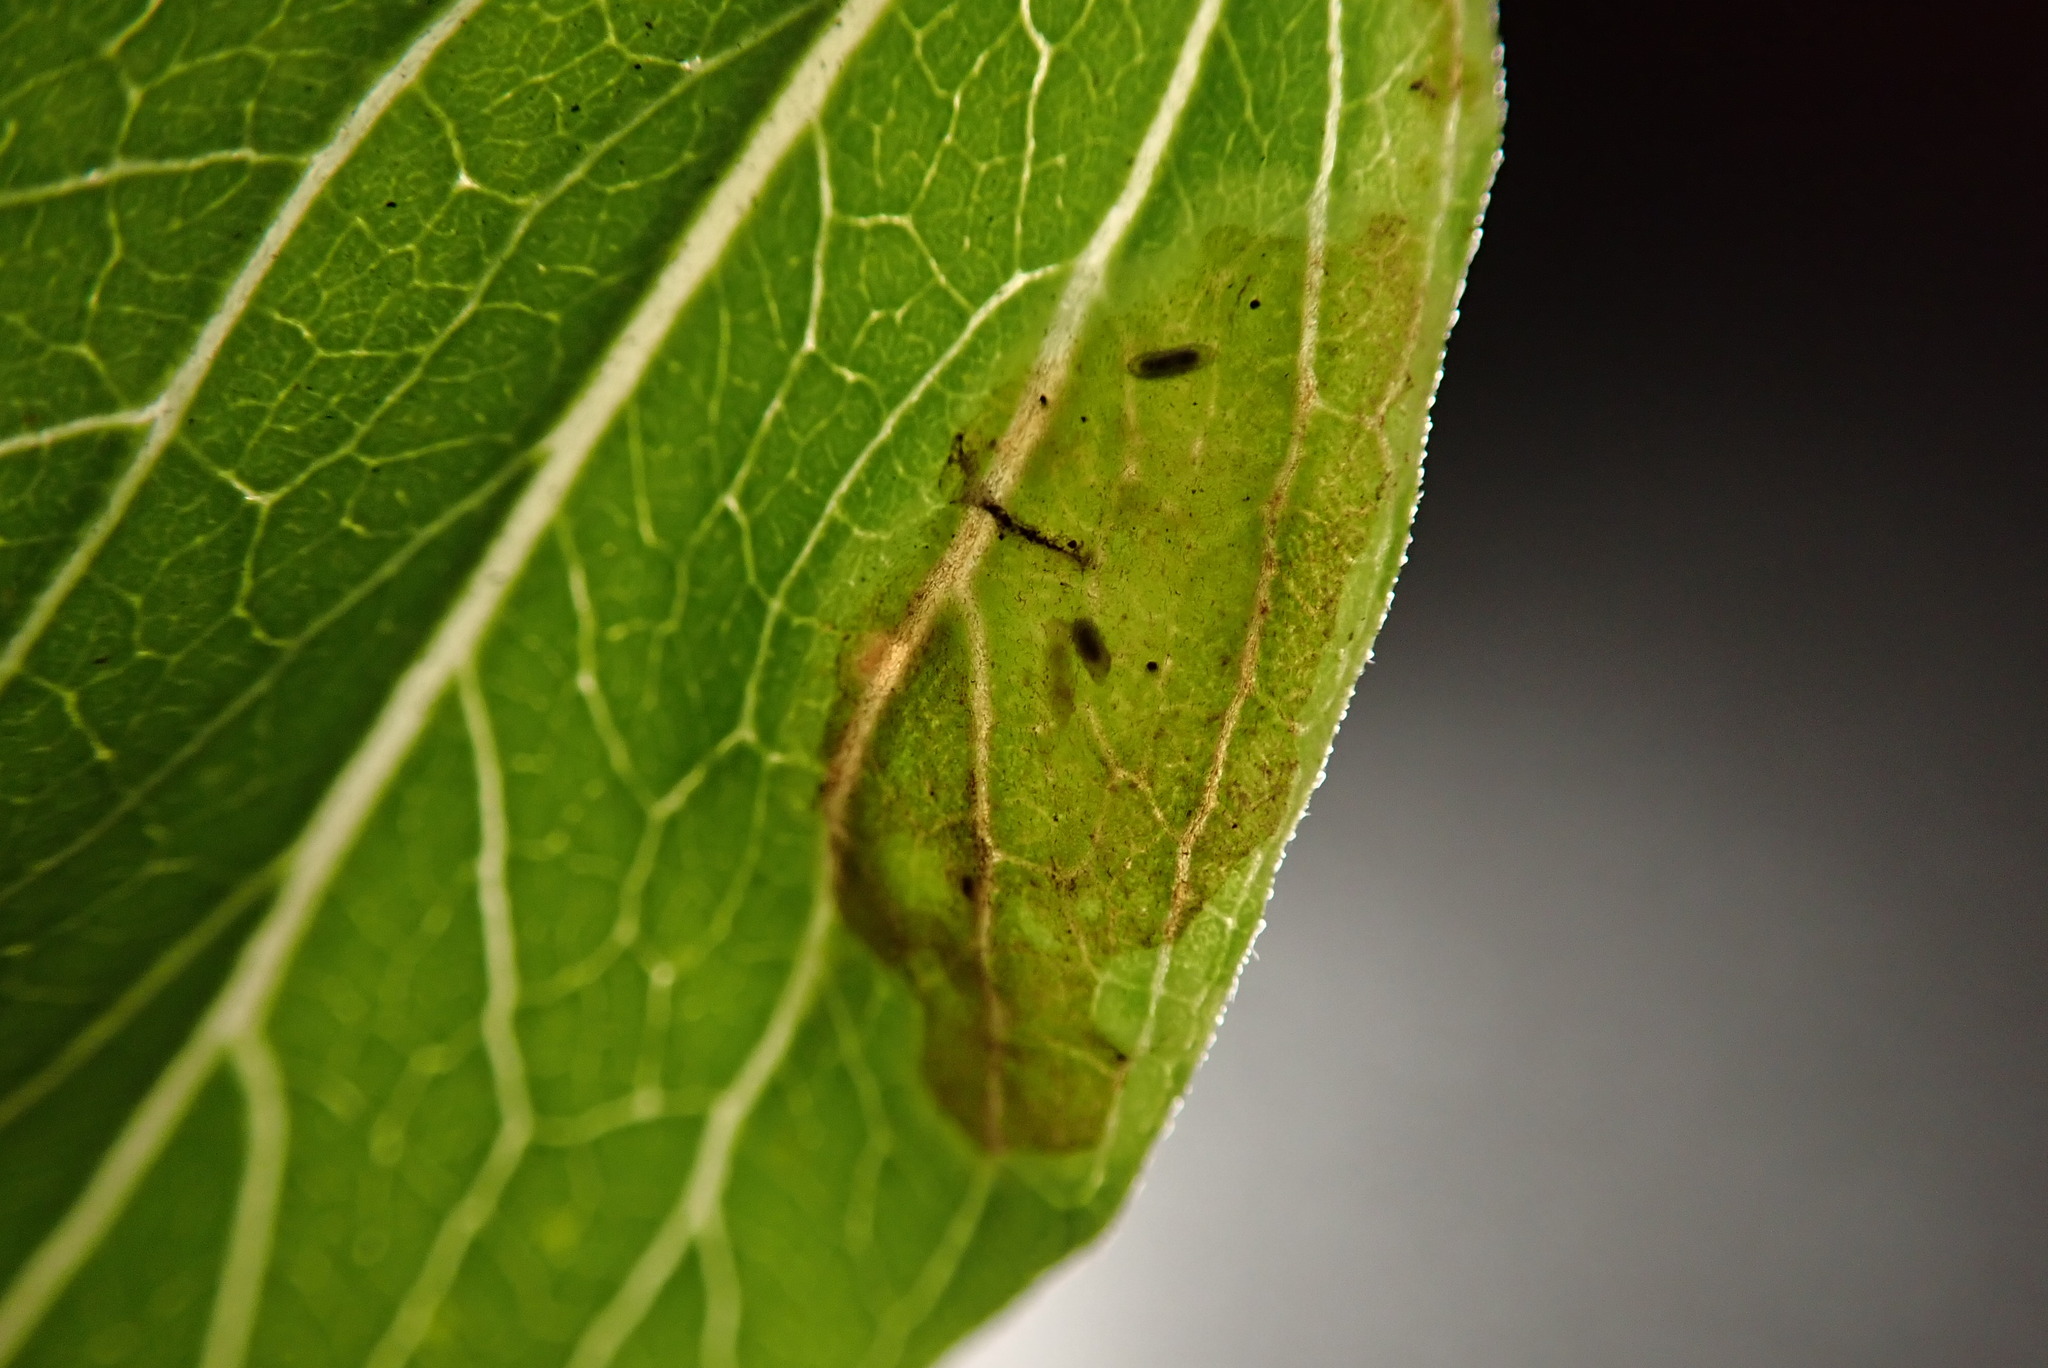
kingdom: Animalia
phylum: Arthropoda
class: Insecta
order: Diptera
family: Agromyzidae
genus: Calycomyza
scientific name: Calycomyza enceliae
